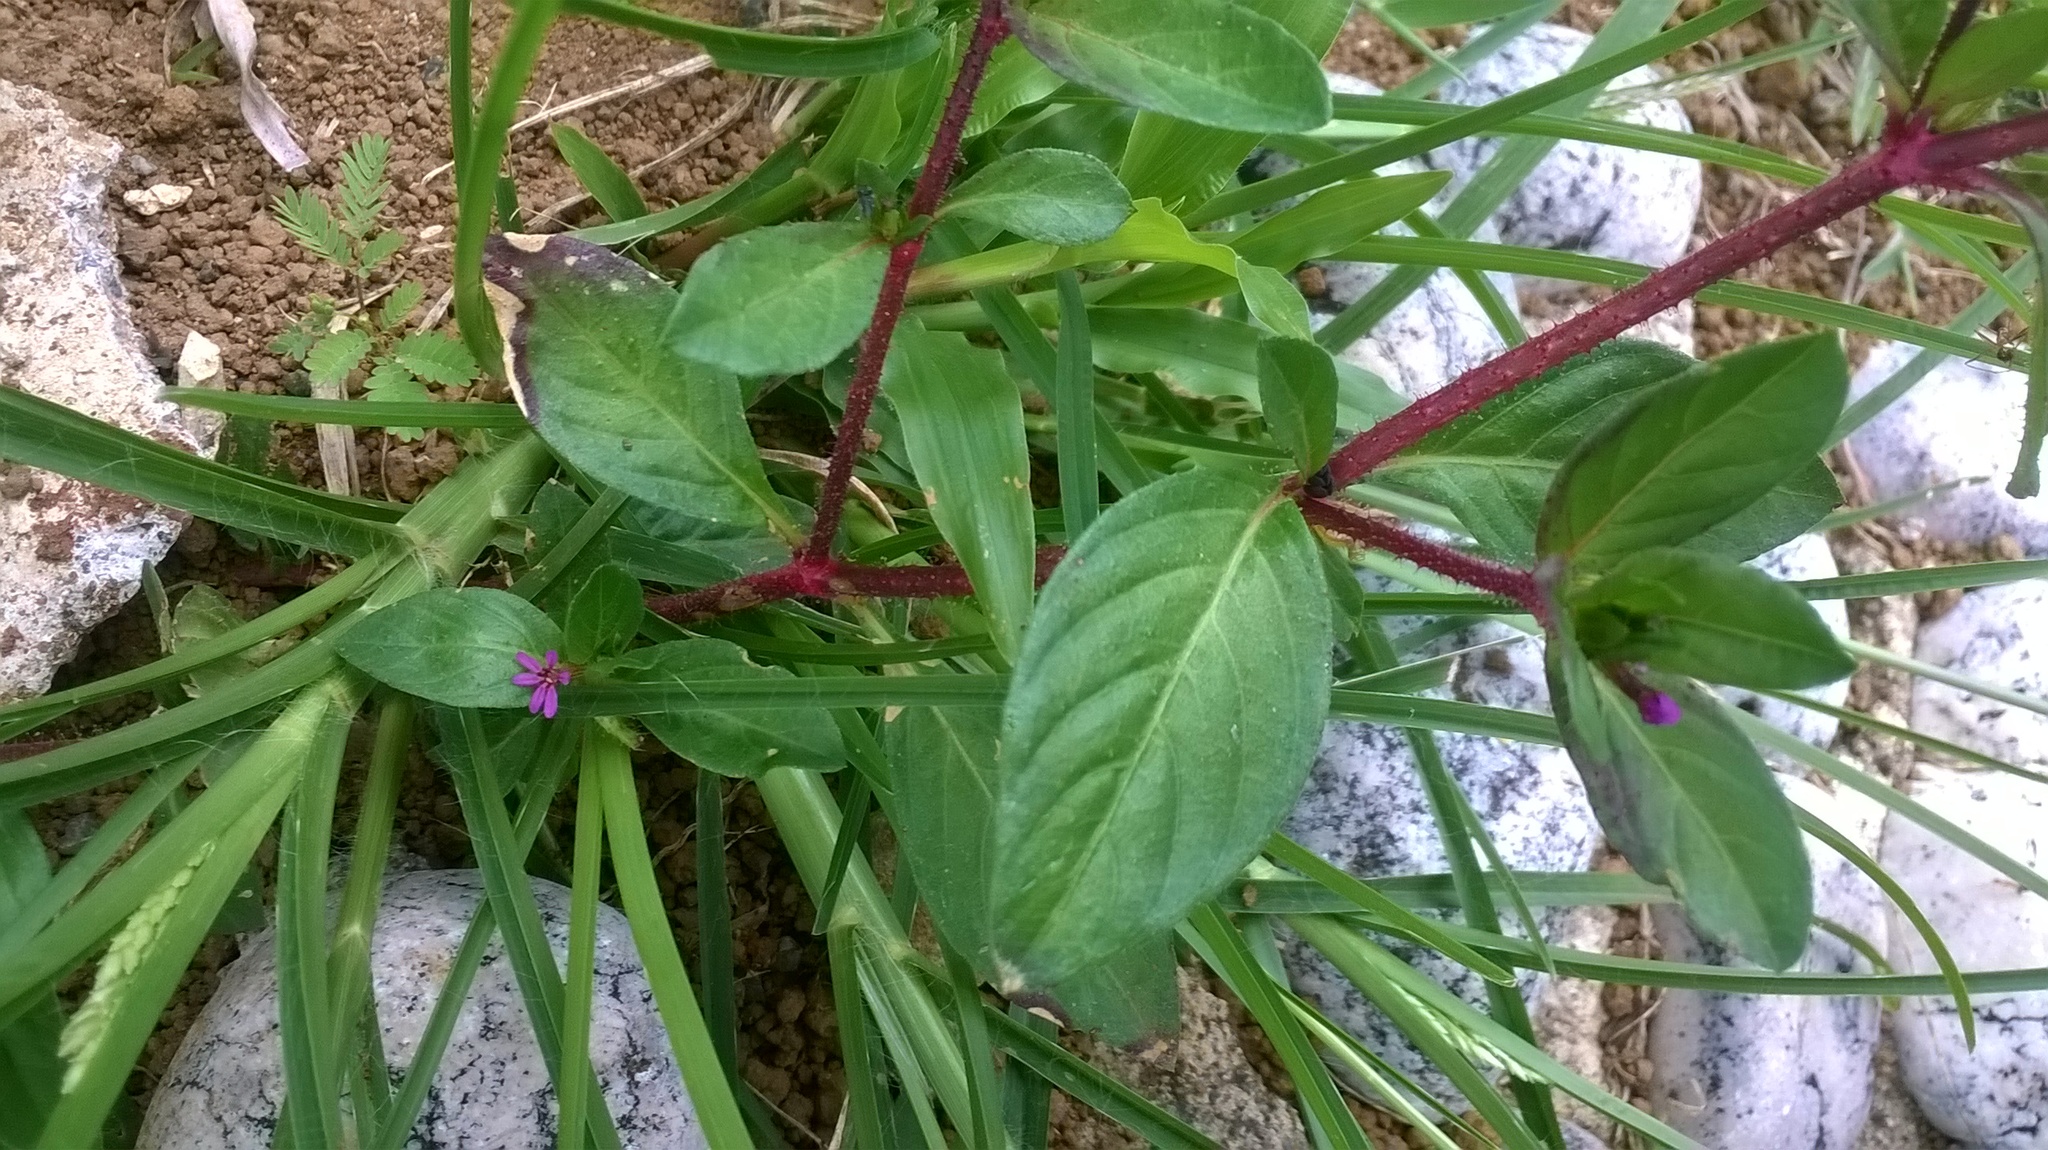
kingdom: Plantae
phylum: Tracheophyta
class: Magnoliopsida
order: Myrtales
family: Lythraceae
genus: Cuphea
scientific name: Cuphea carthagenensis
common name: Colombian waxweed
